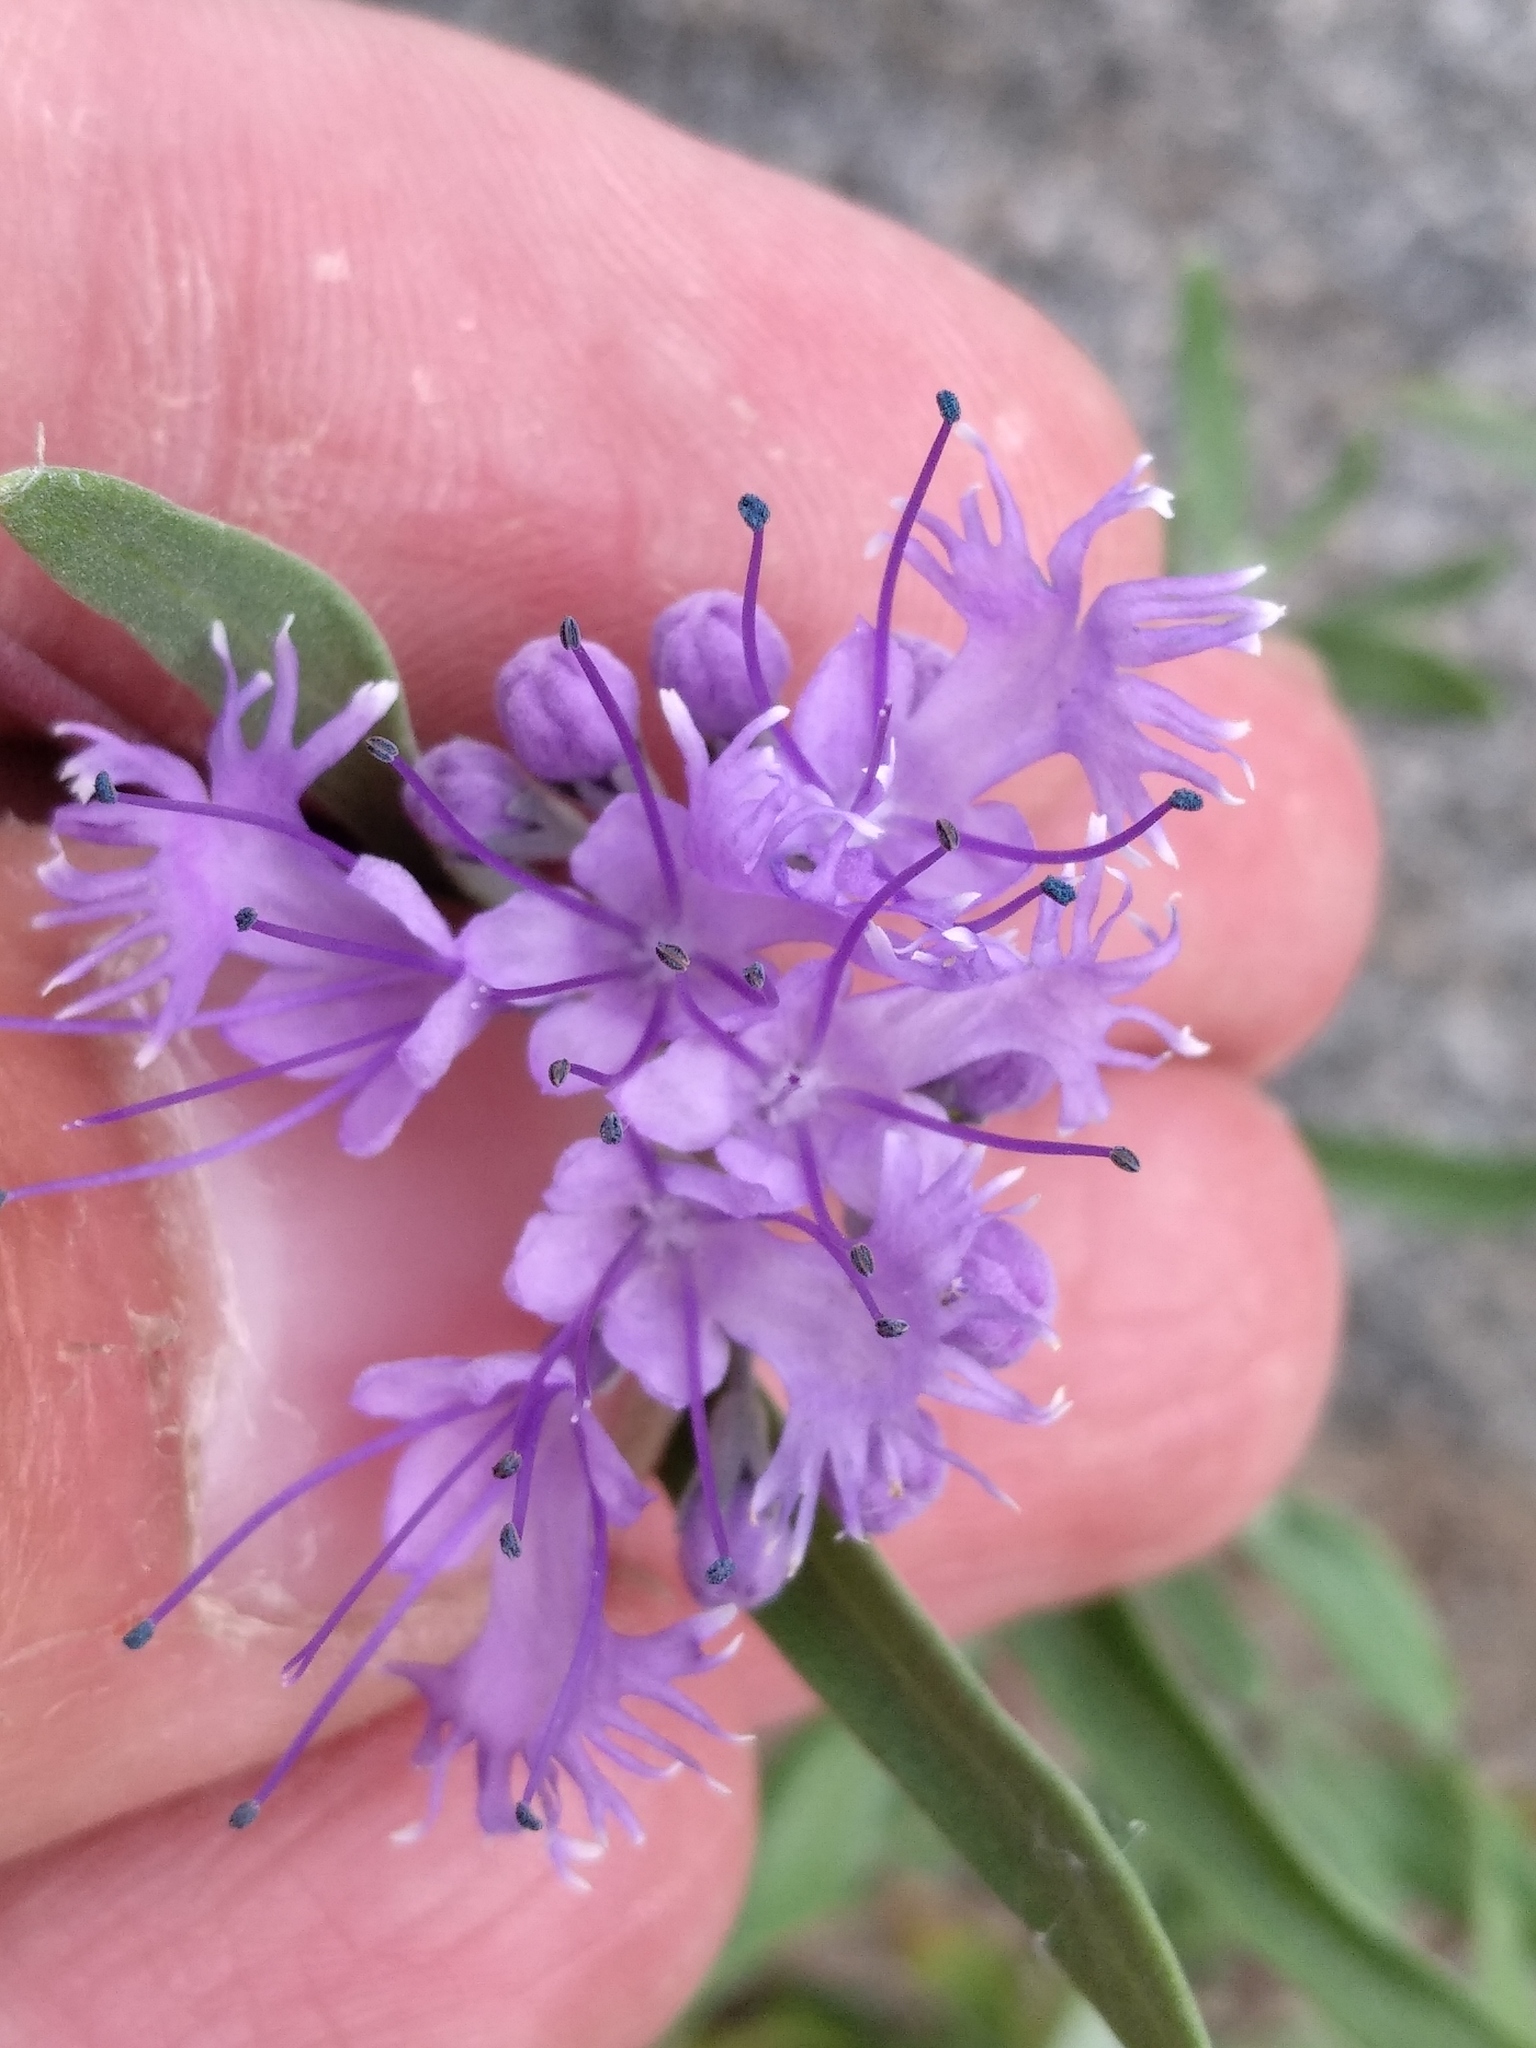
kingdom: Plantae
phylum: Tracheophyta
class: Magnoliopsida
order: Lamiales
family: Lamiaceae
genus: Caryopteris
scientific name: Caryopteris mongholica
